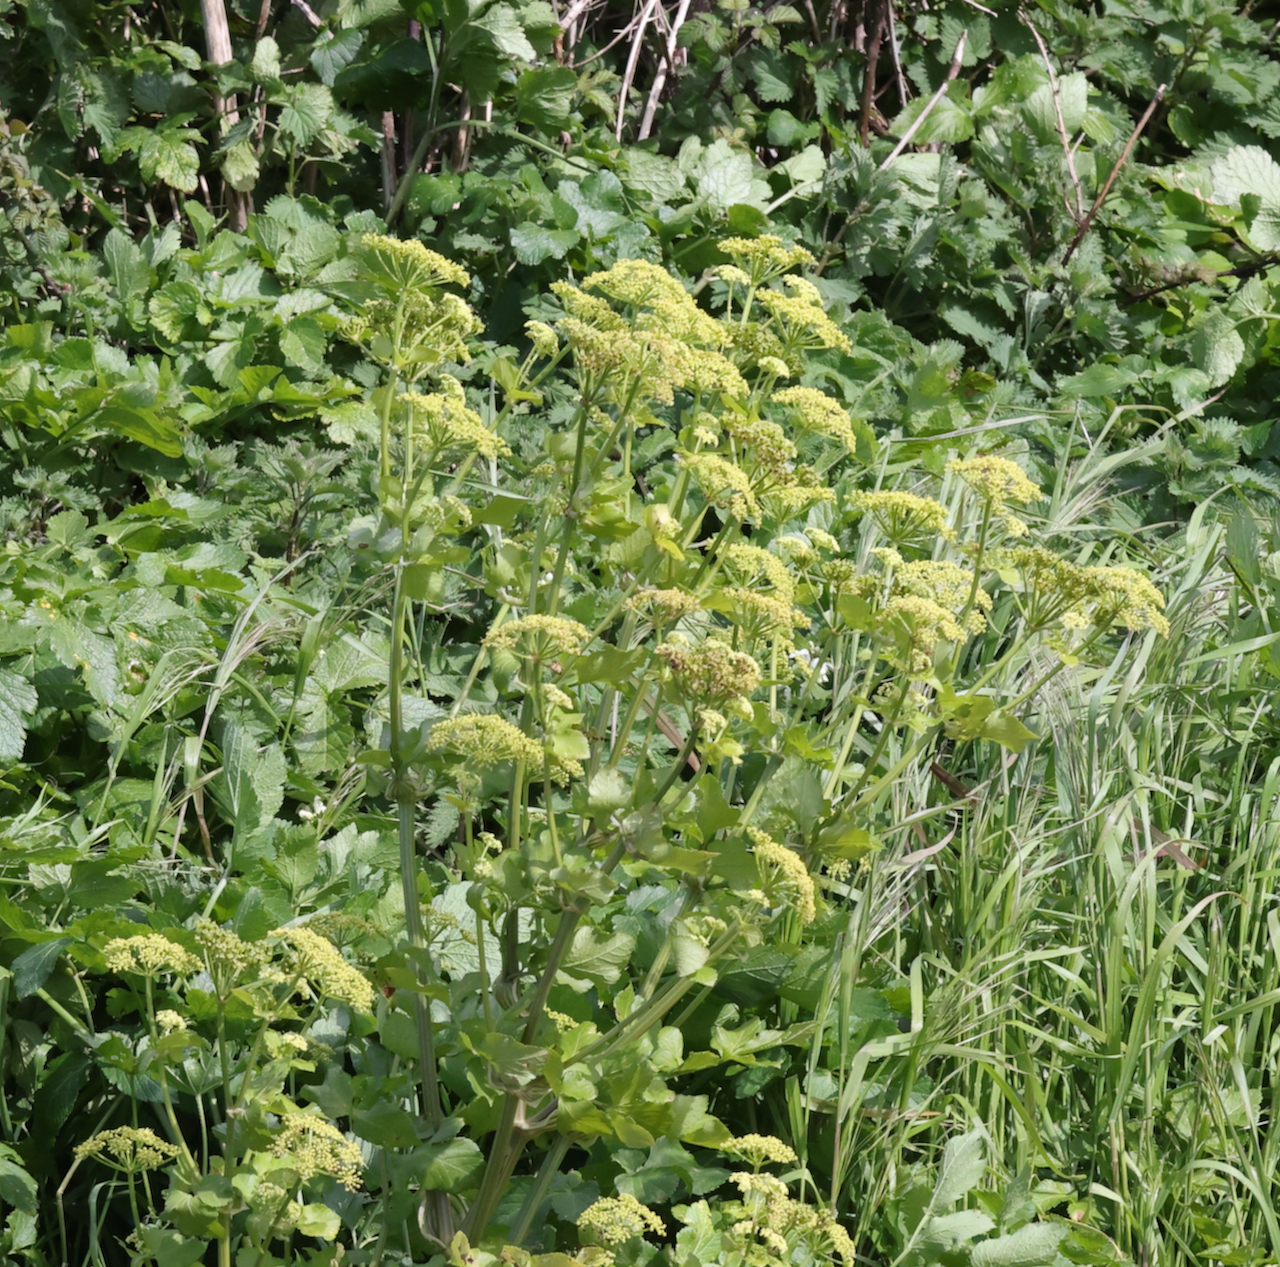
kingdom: Plantae
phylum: Tracheophyta
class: Magnoliopsida
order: Apiales
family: Apiaceae
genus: Smyrnium
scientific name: Smyrnium olusatrum
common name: Alexanders
